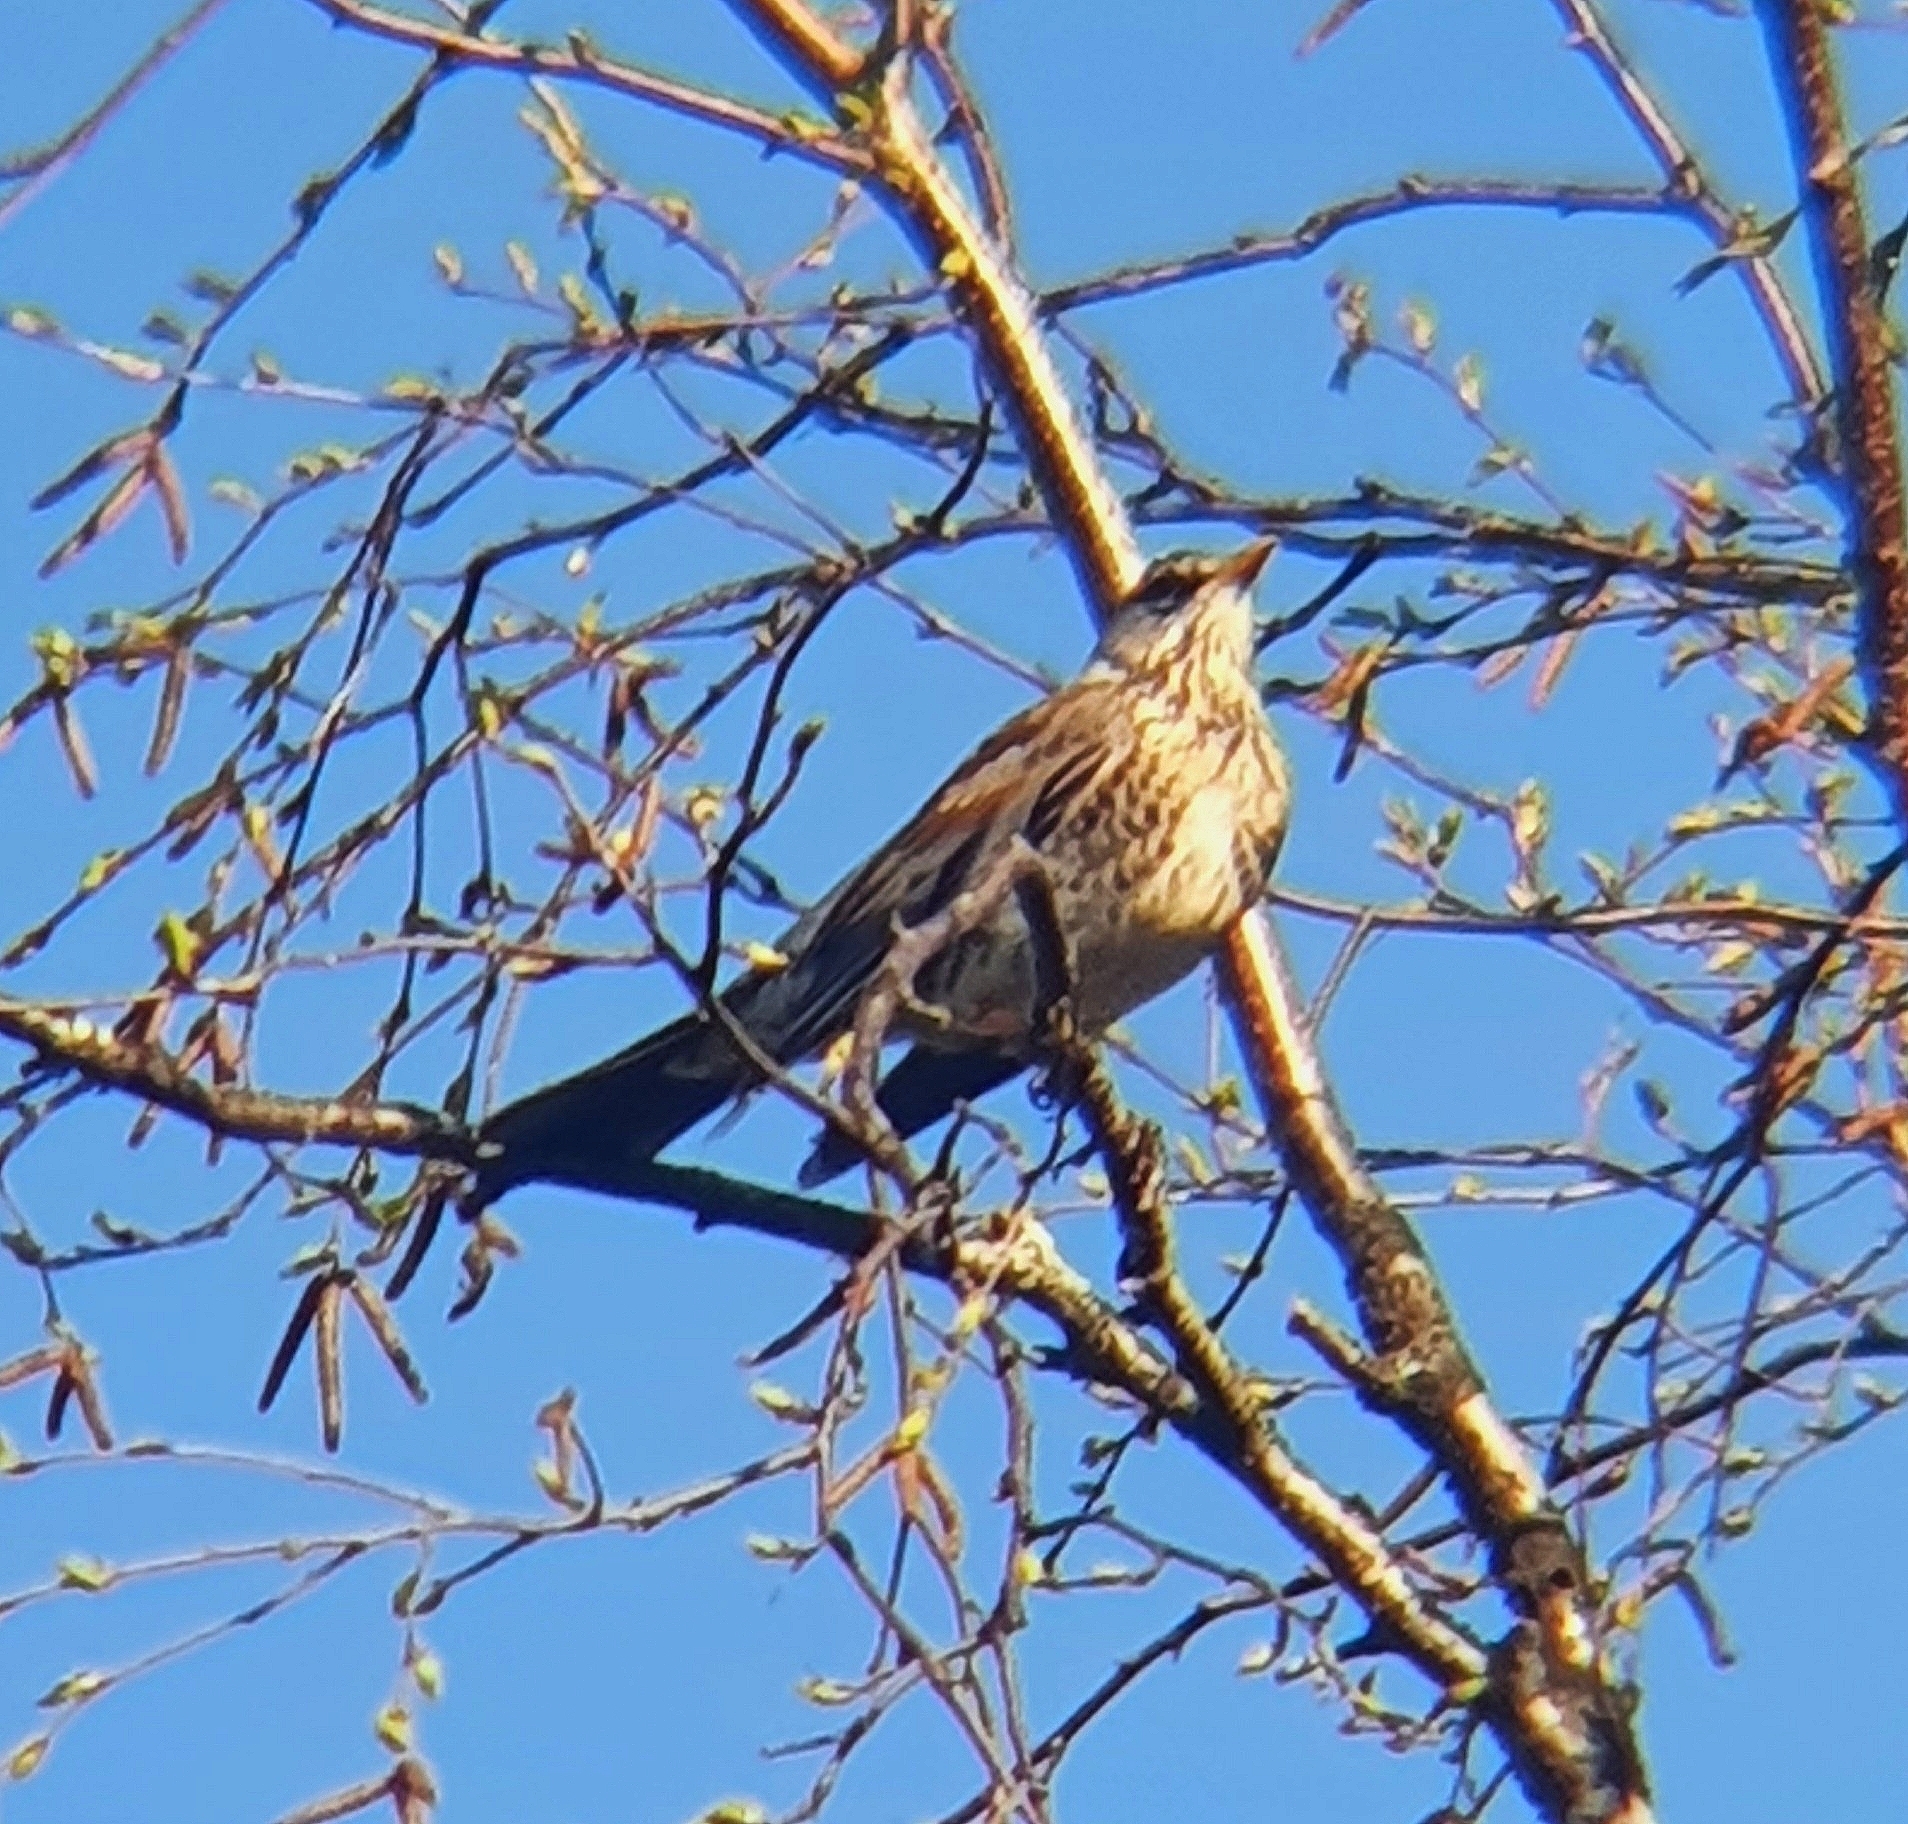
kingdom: Animalia
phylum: Chordata
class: Aves
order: Passeriformes
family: Turdidae
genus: Turdus
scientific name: Turdus pilaris
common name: Fieldfare
